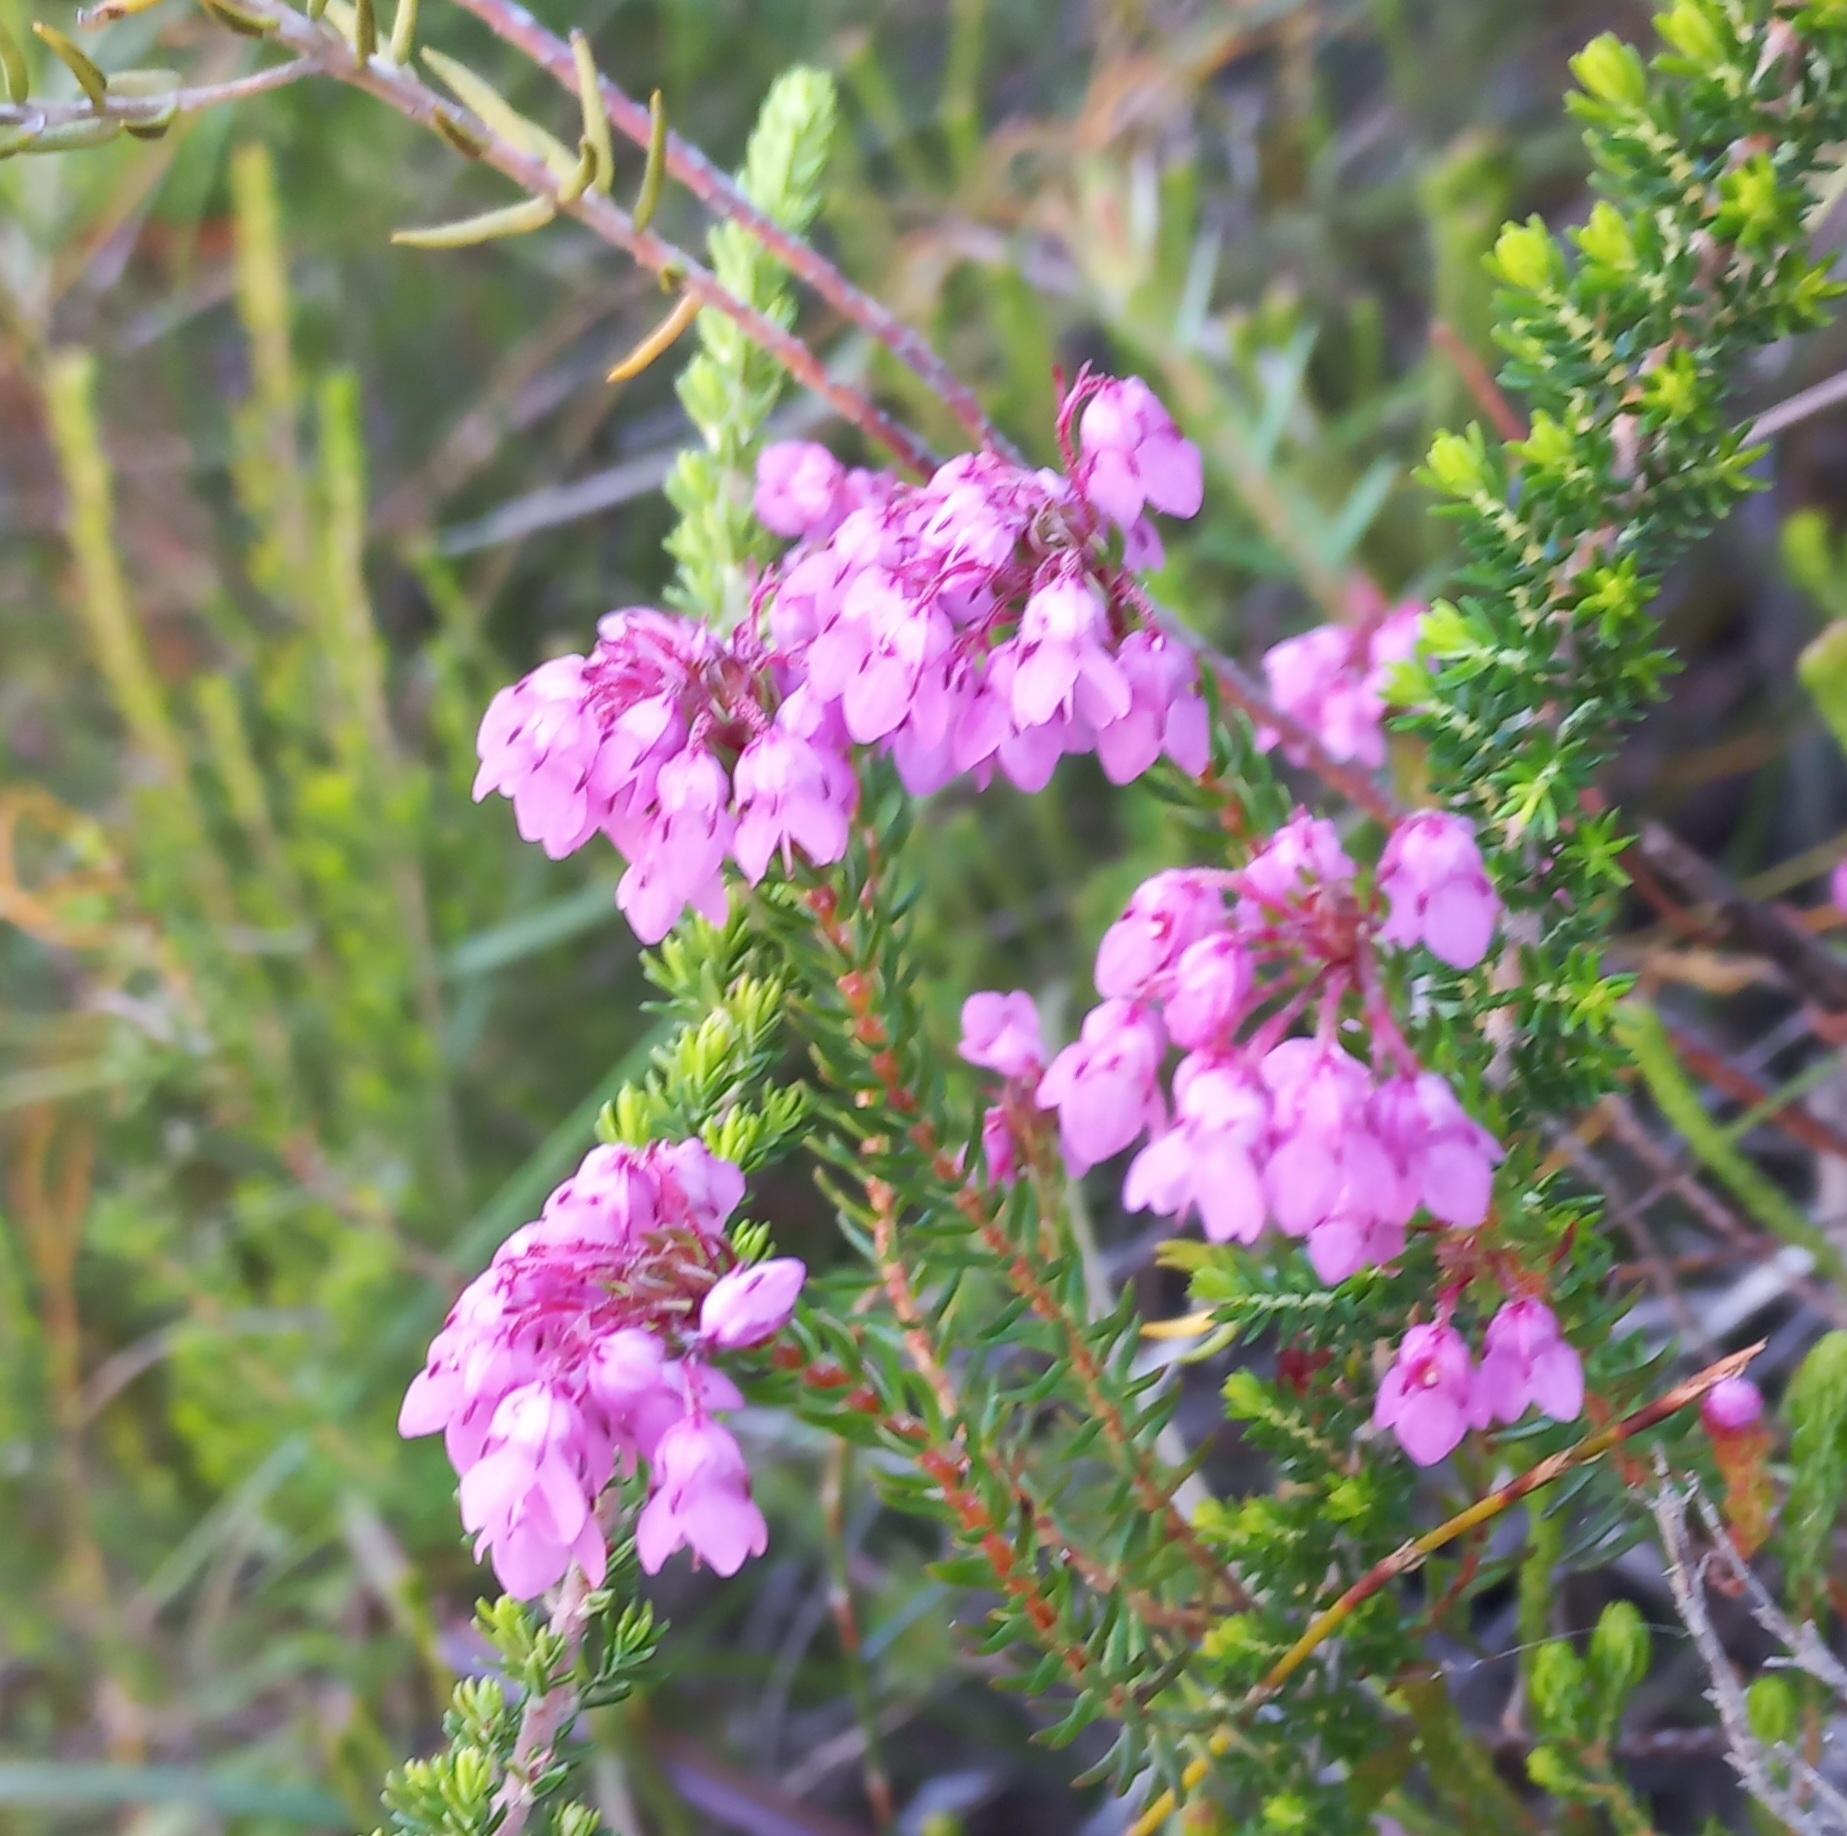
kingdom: Plantae
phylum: Tracheophyta
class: Magnoliopsida
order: Ericales
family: Ericaceae
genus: Erica
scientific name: Erica cubica
